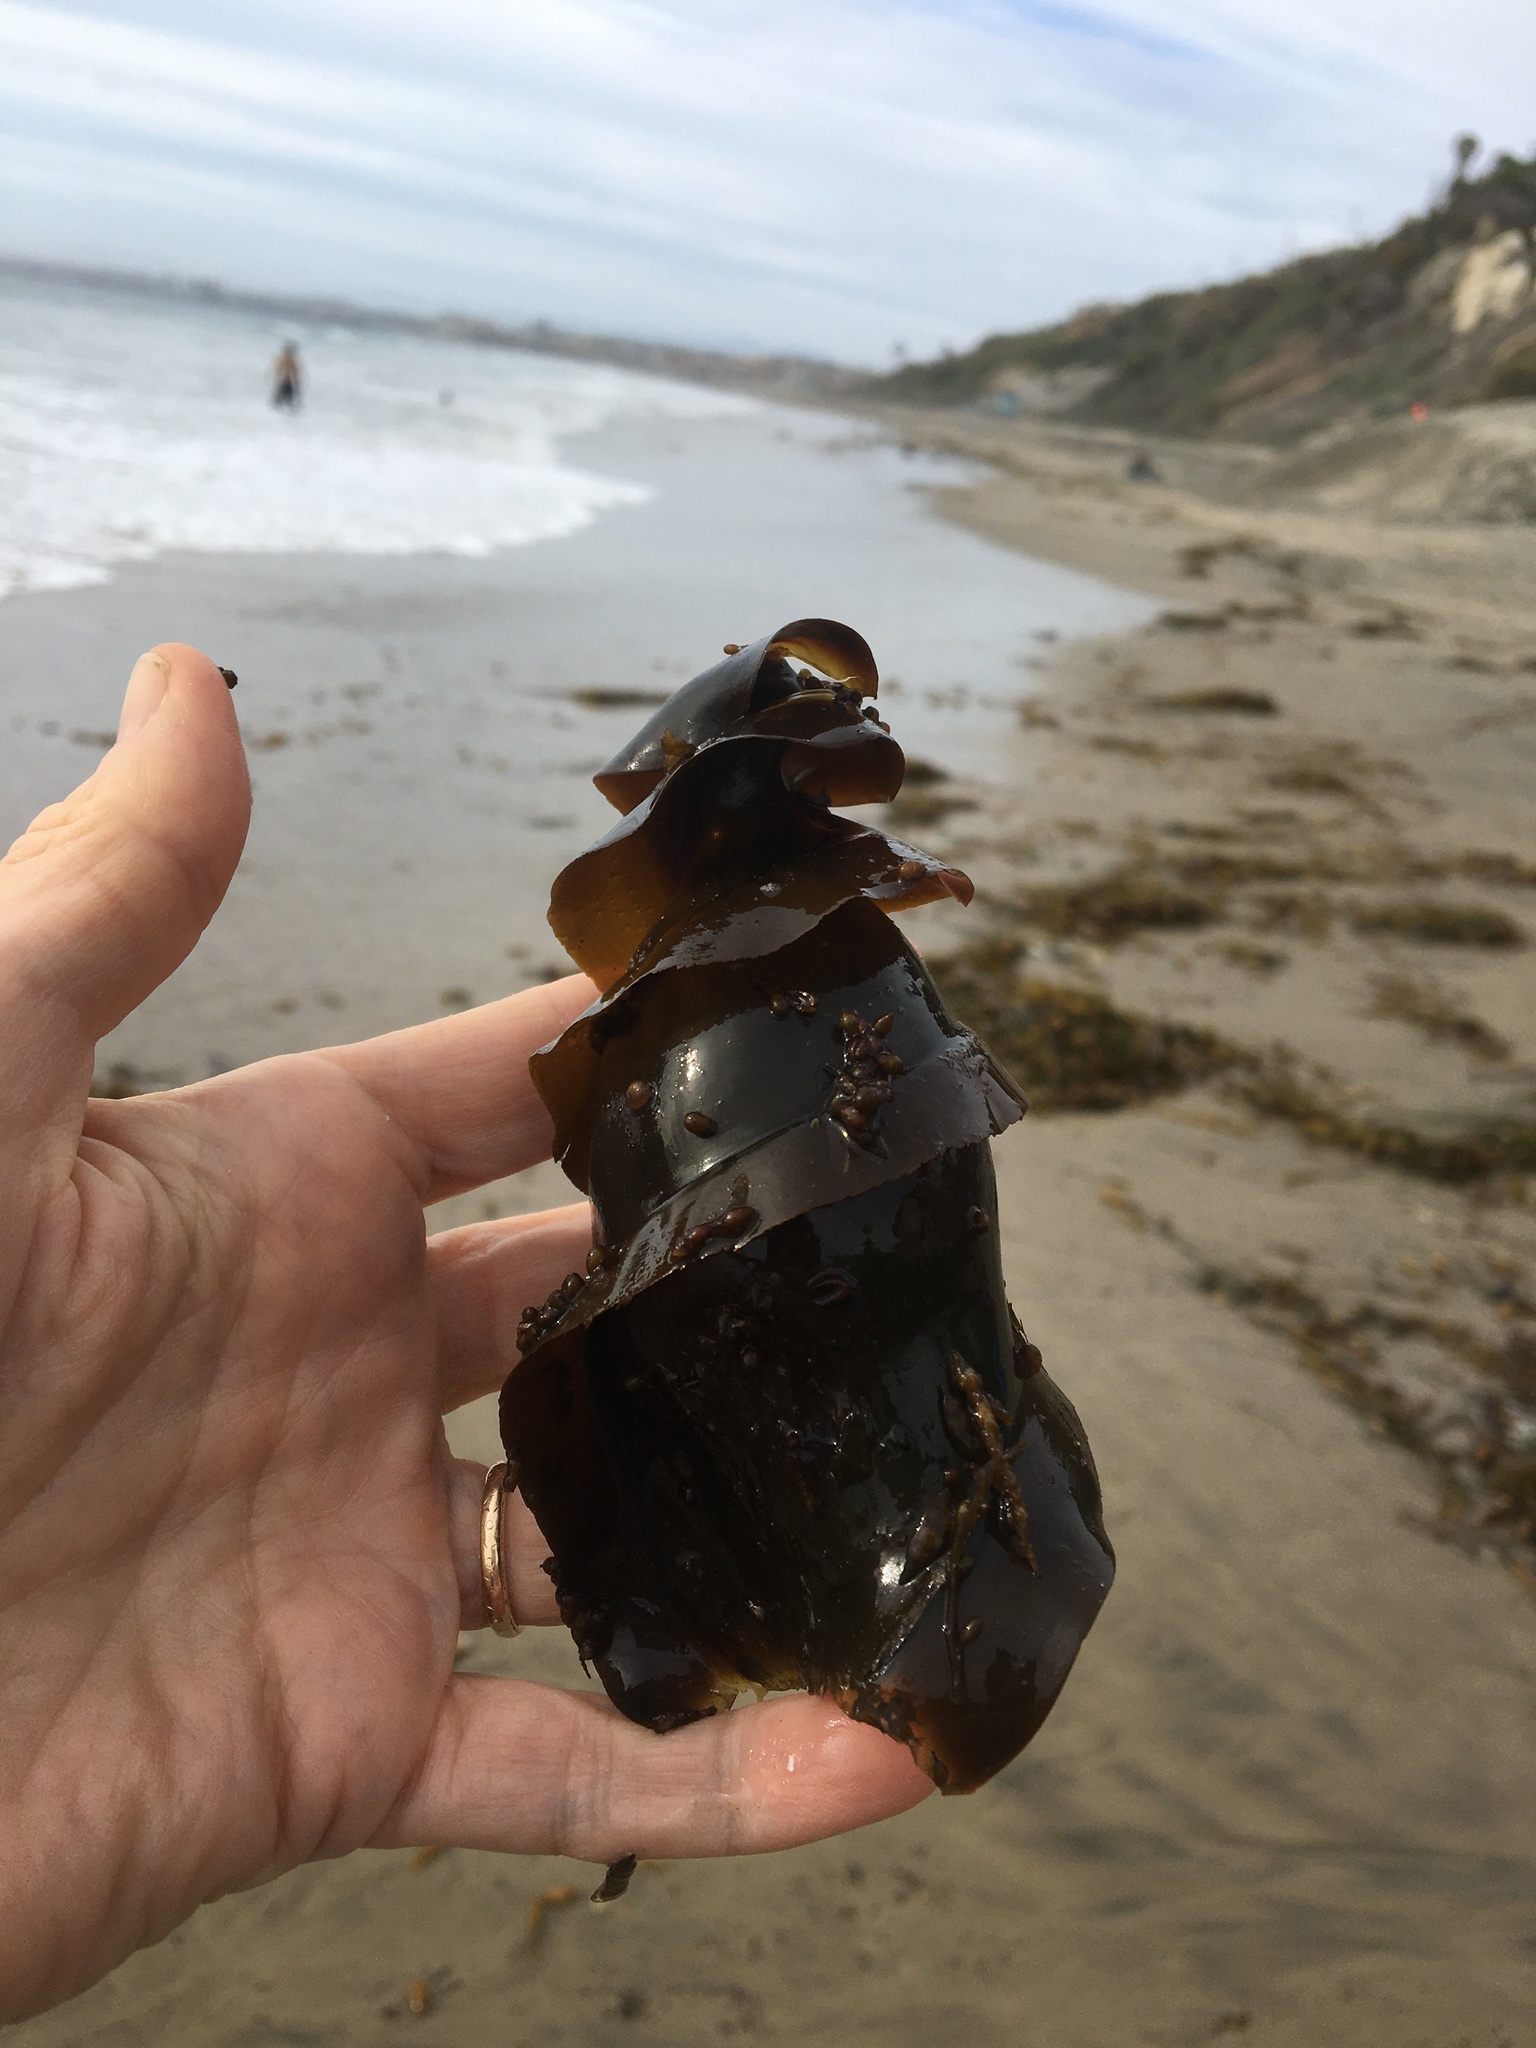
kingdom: Animalia
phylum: Chordata
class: Elasmobranchii
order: Heterodontiformes
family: Heterodontidae
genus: Heterodontus
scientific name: Heterodontus francisci
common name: Horn shark
